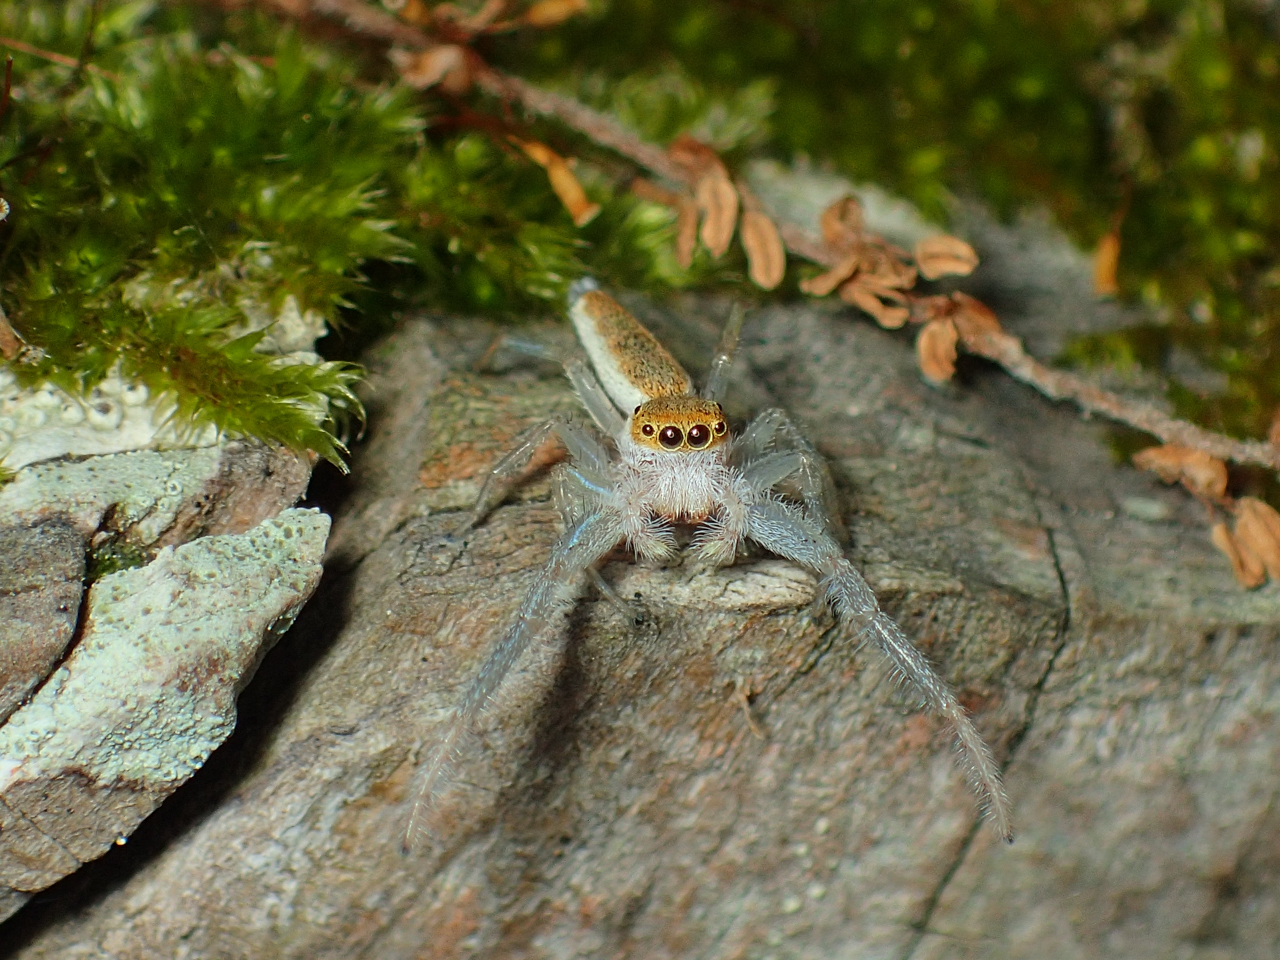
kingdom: Animalia
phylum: Arthropoda
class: Arachnida
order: Araneae
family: Salticidae
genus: Hentzia
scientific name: Hentzia mitrata
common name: White-jawed jumping spider
